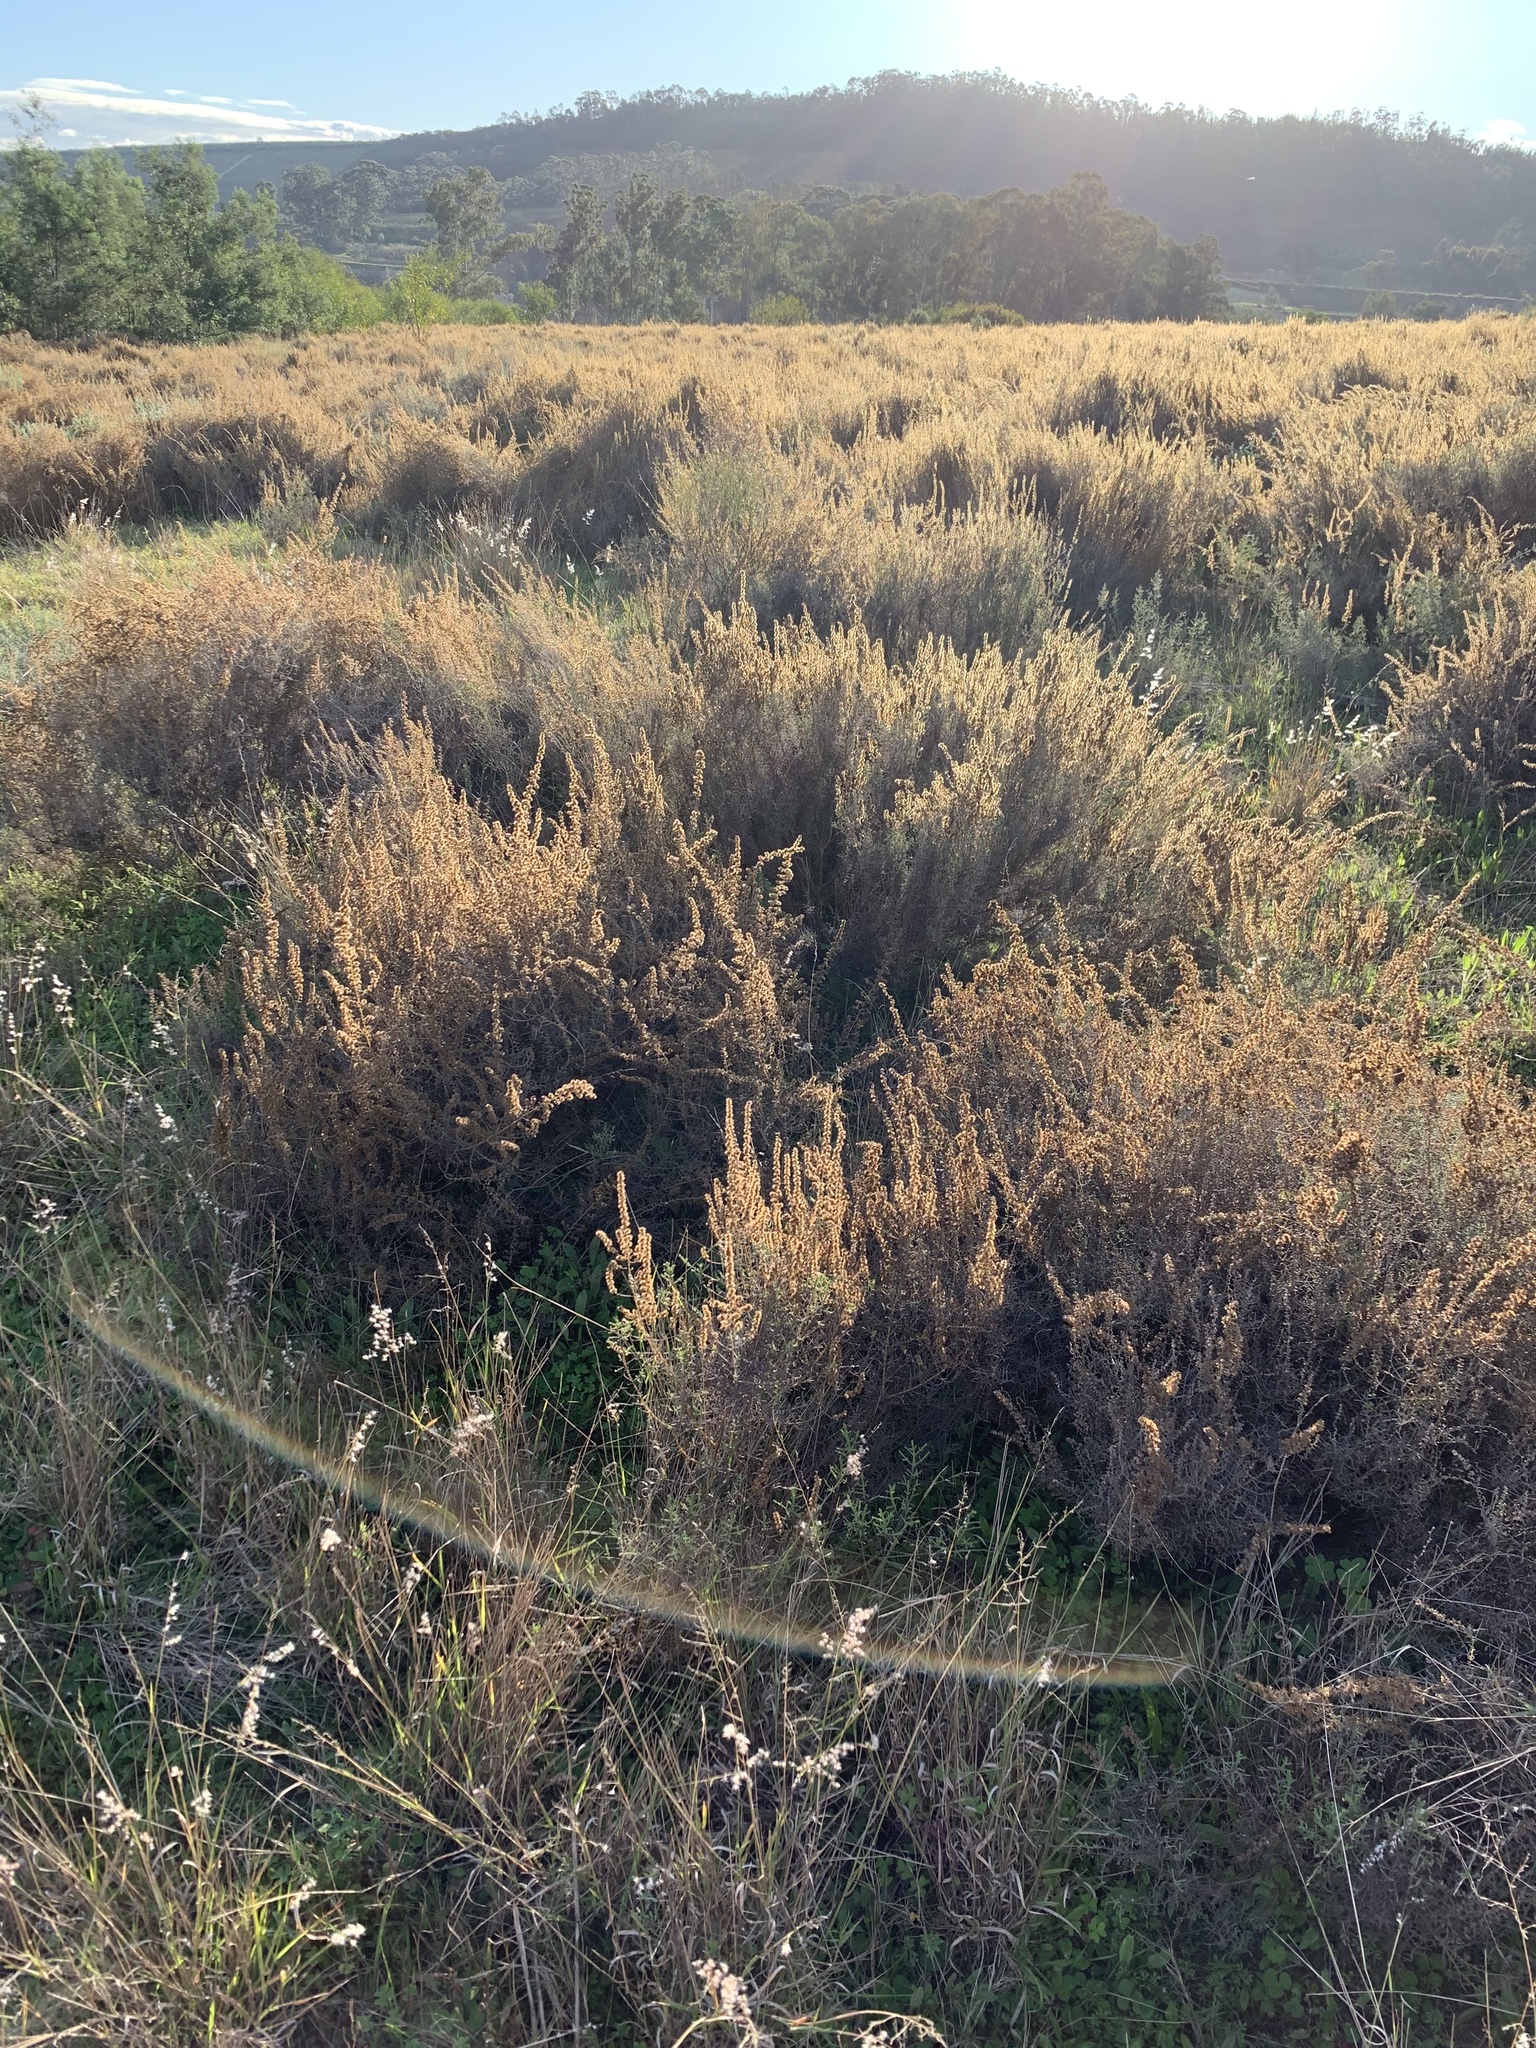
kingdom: Plantae
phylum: Tracheophyta
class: Magnoliopsida
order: Asterales
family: Asteraceae
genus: Seriphium
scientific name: Seriphium plumosum
